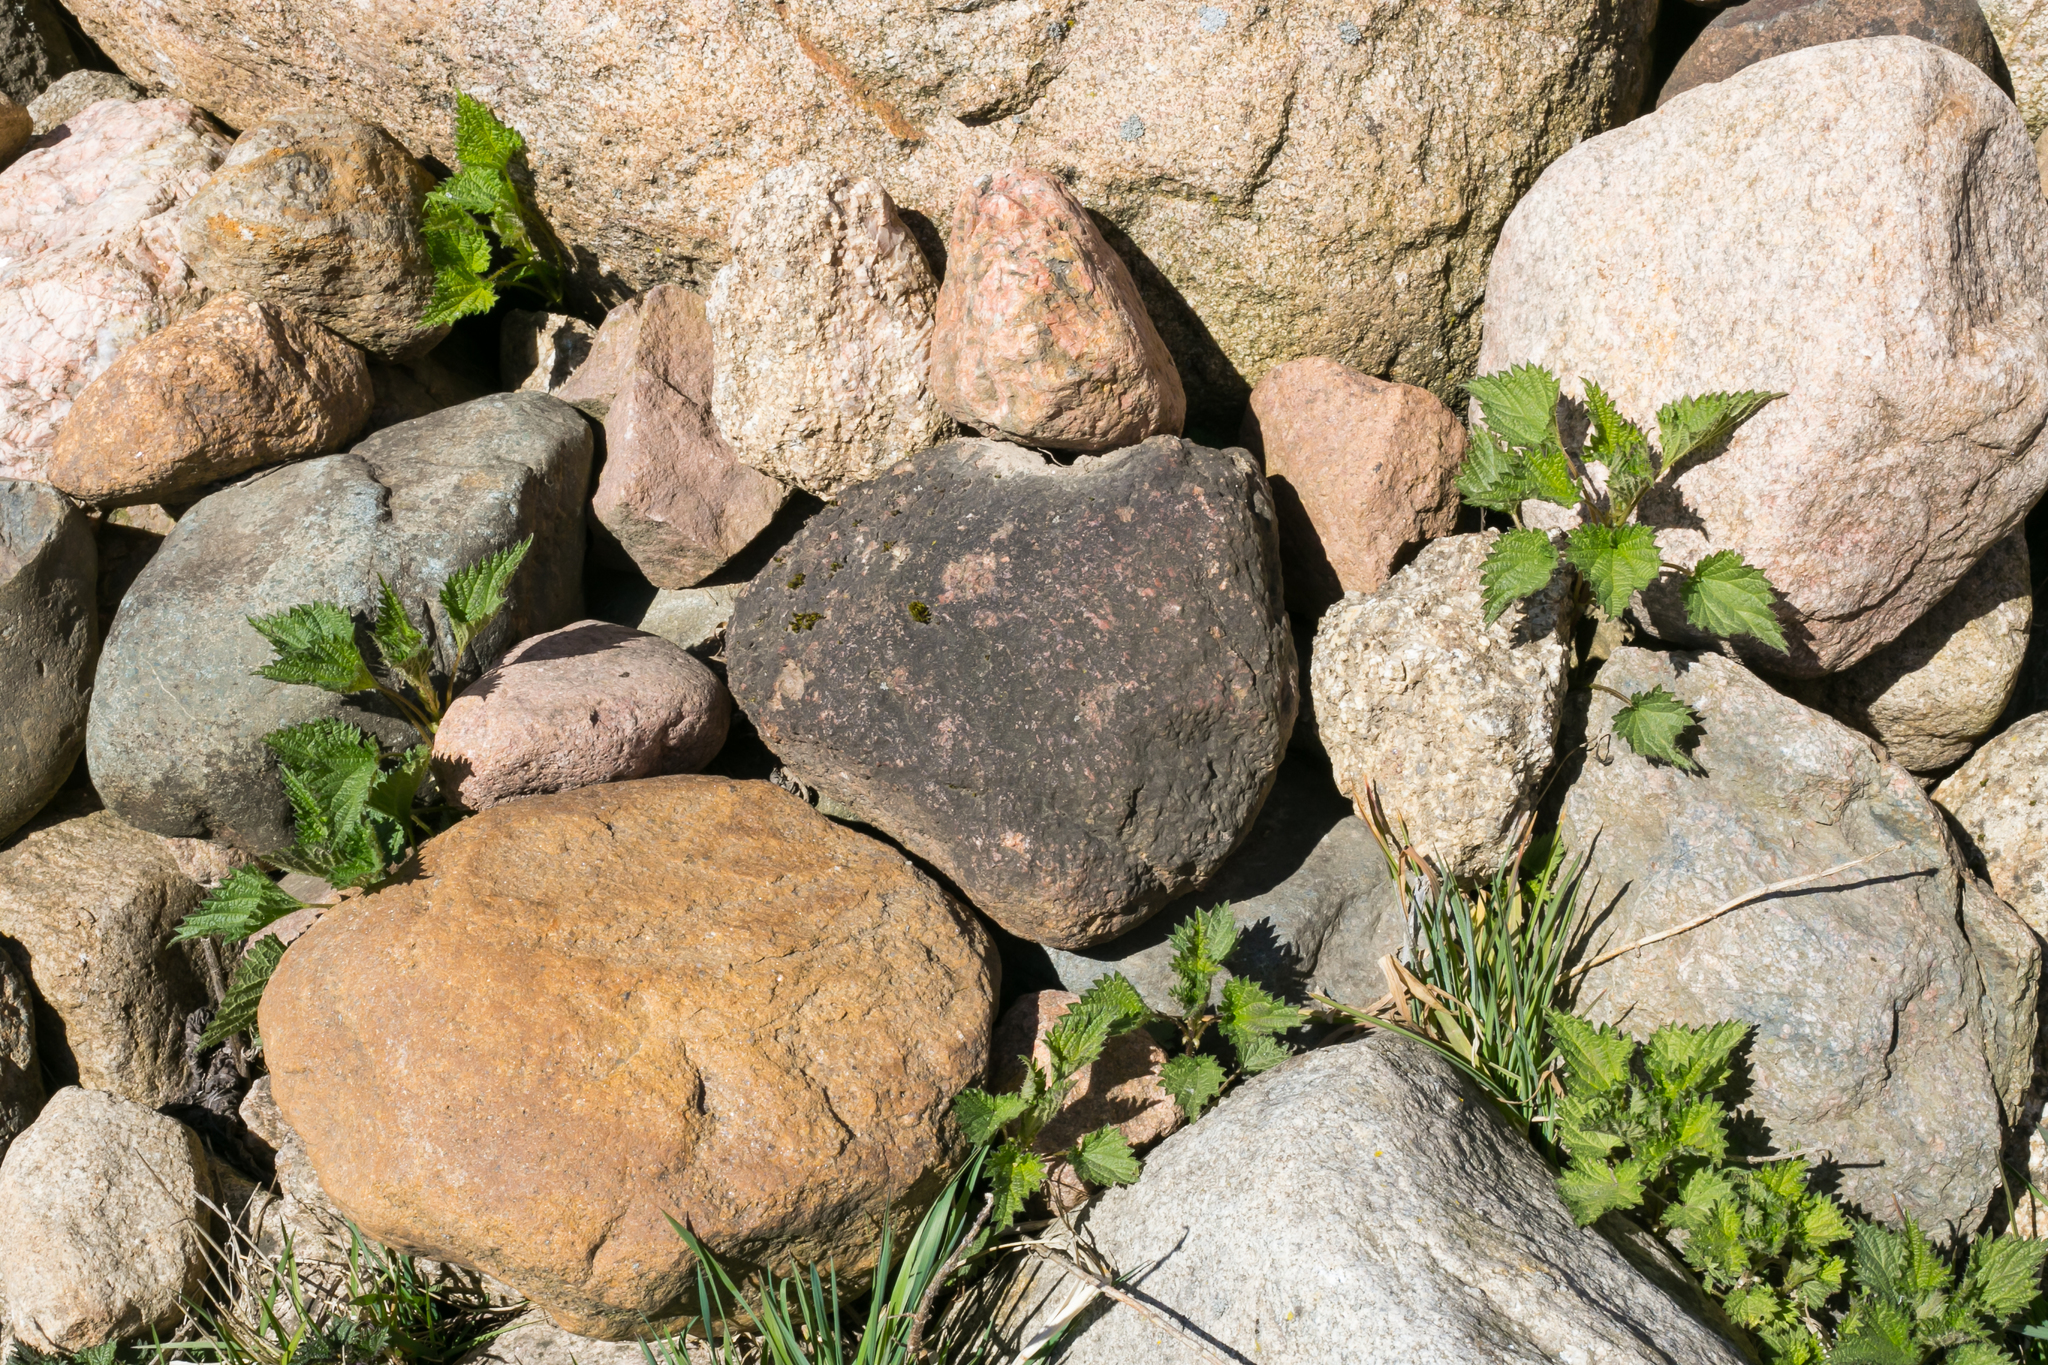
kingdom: Plantae
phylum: Tracheophyta
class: Magnoliopsida
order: Rosales
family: Urticaceae
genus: Urtica
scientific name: Urtica dioica
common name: Common nettle
